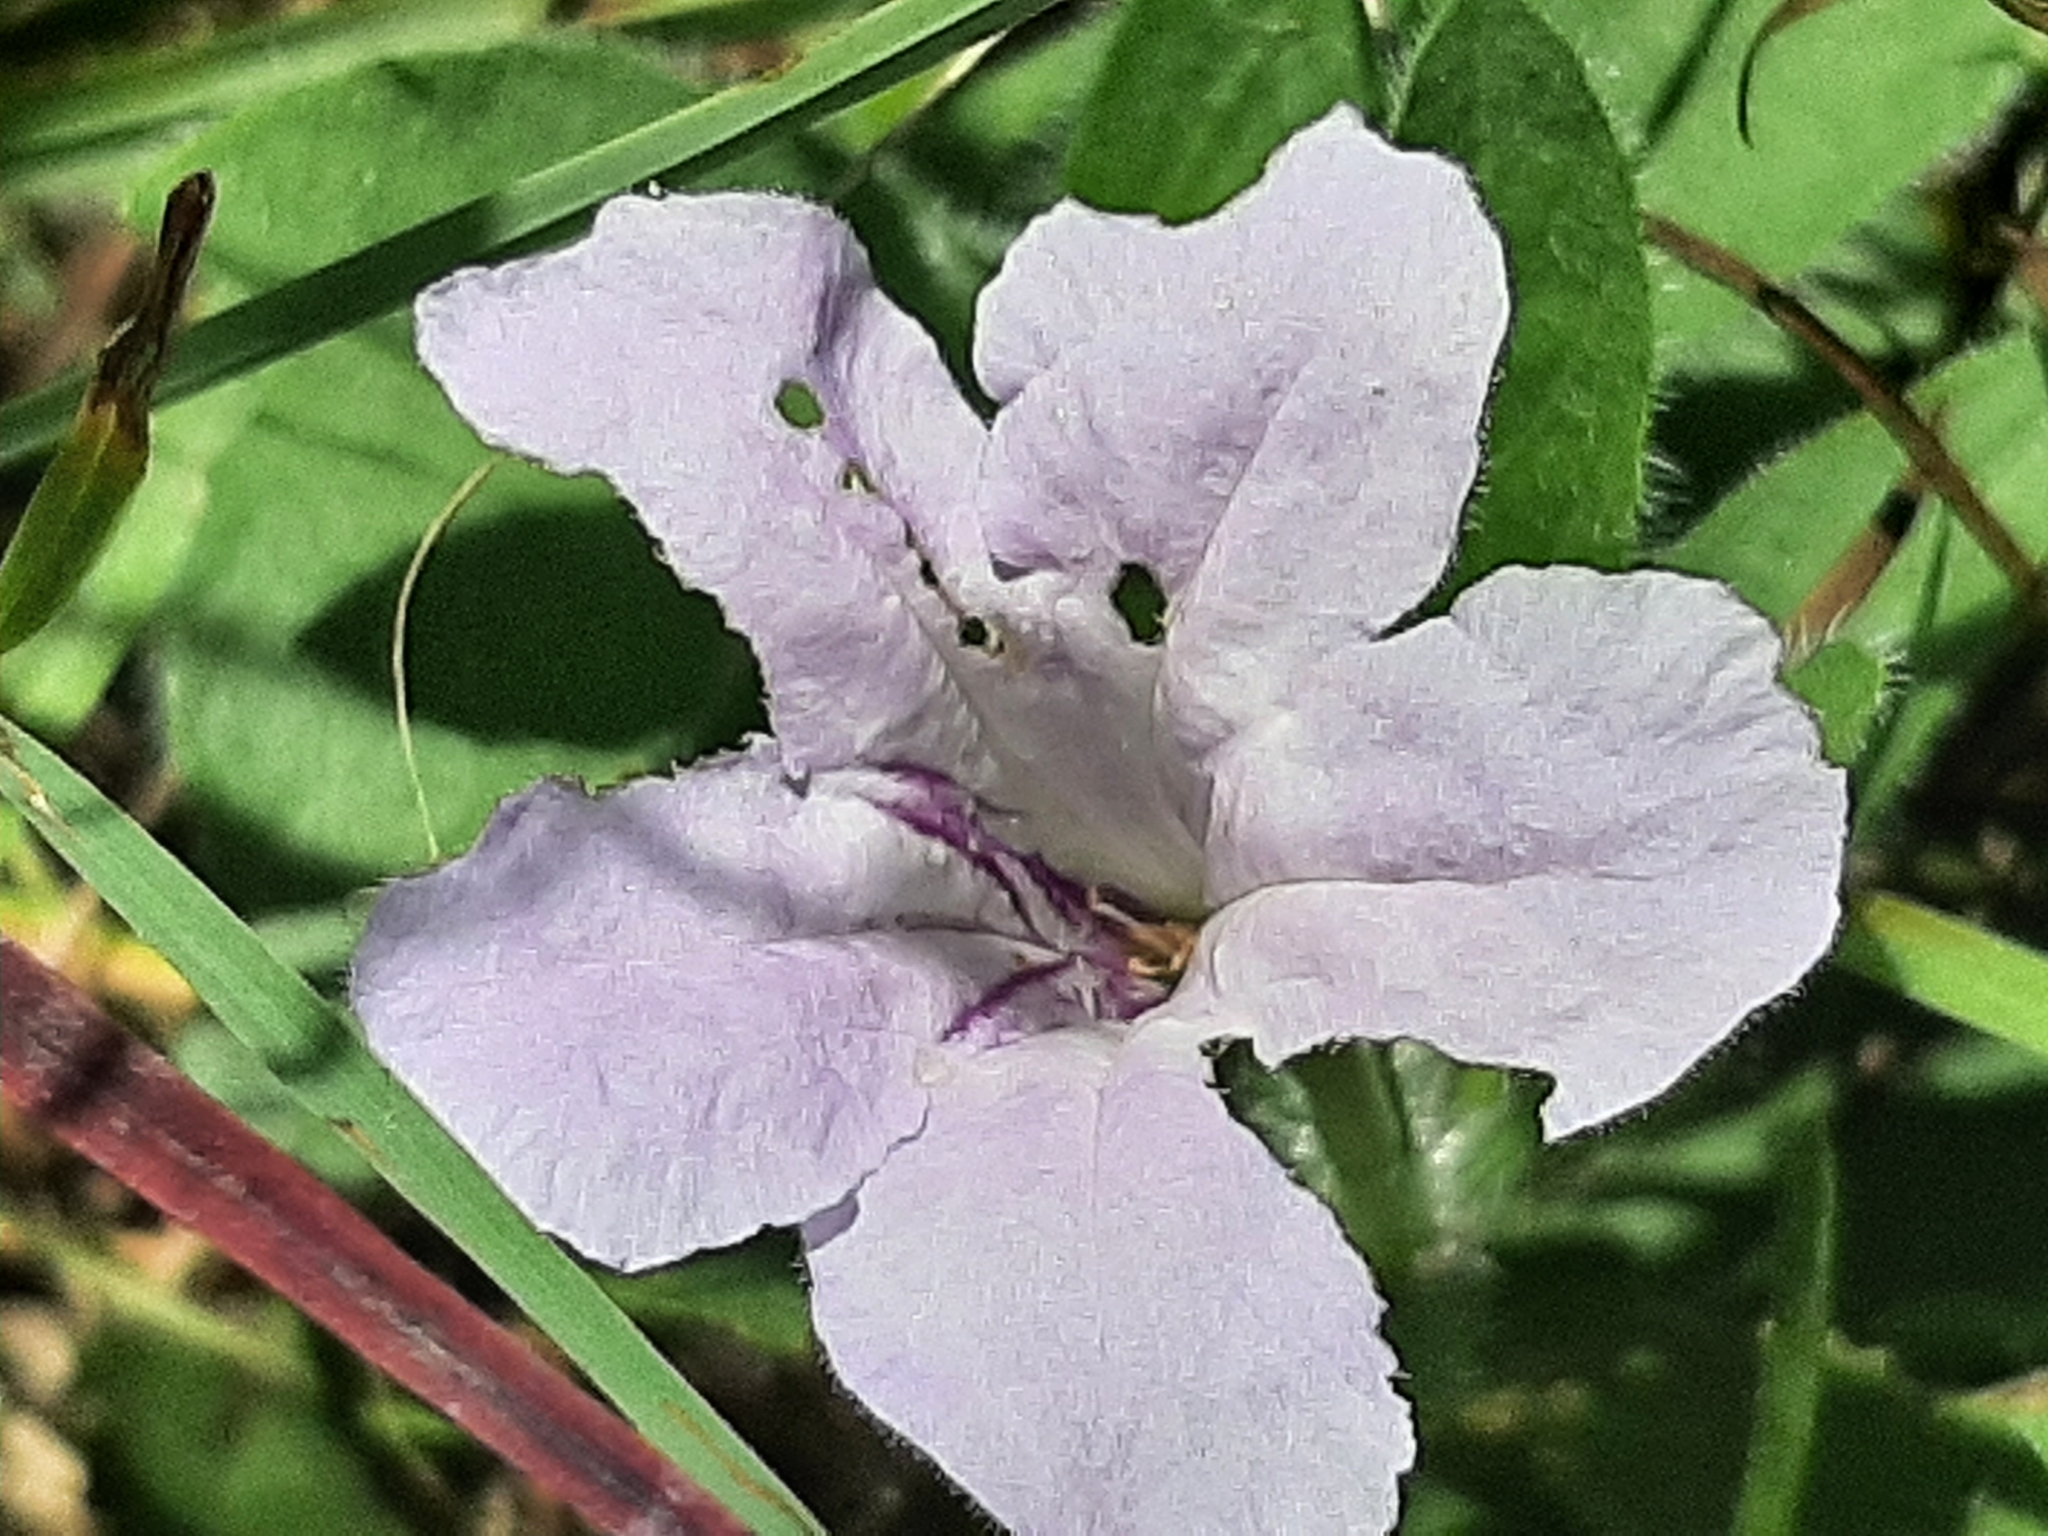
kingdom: Plantae
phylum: Tracheophyta
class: Magnoliopsida
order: Lamiales
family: Acanthaceae
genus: Ruellia
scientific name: Ruellia humilis
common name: Fringe-leaf ruellia
